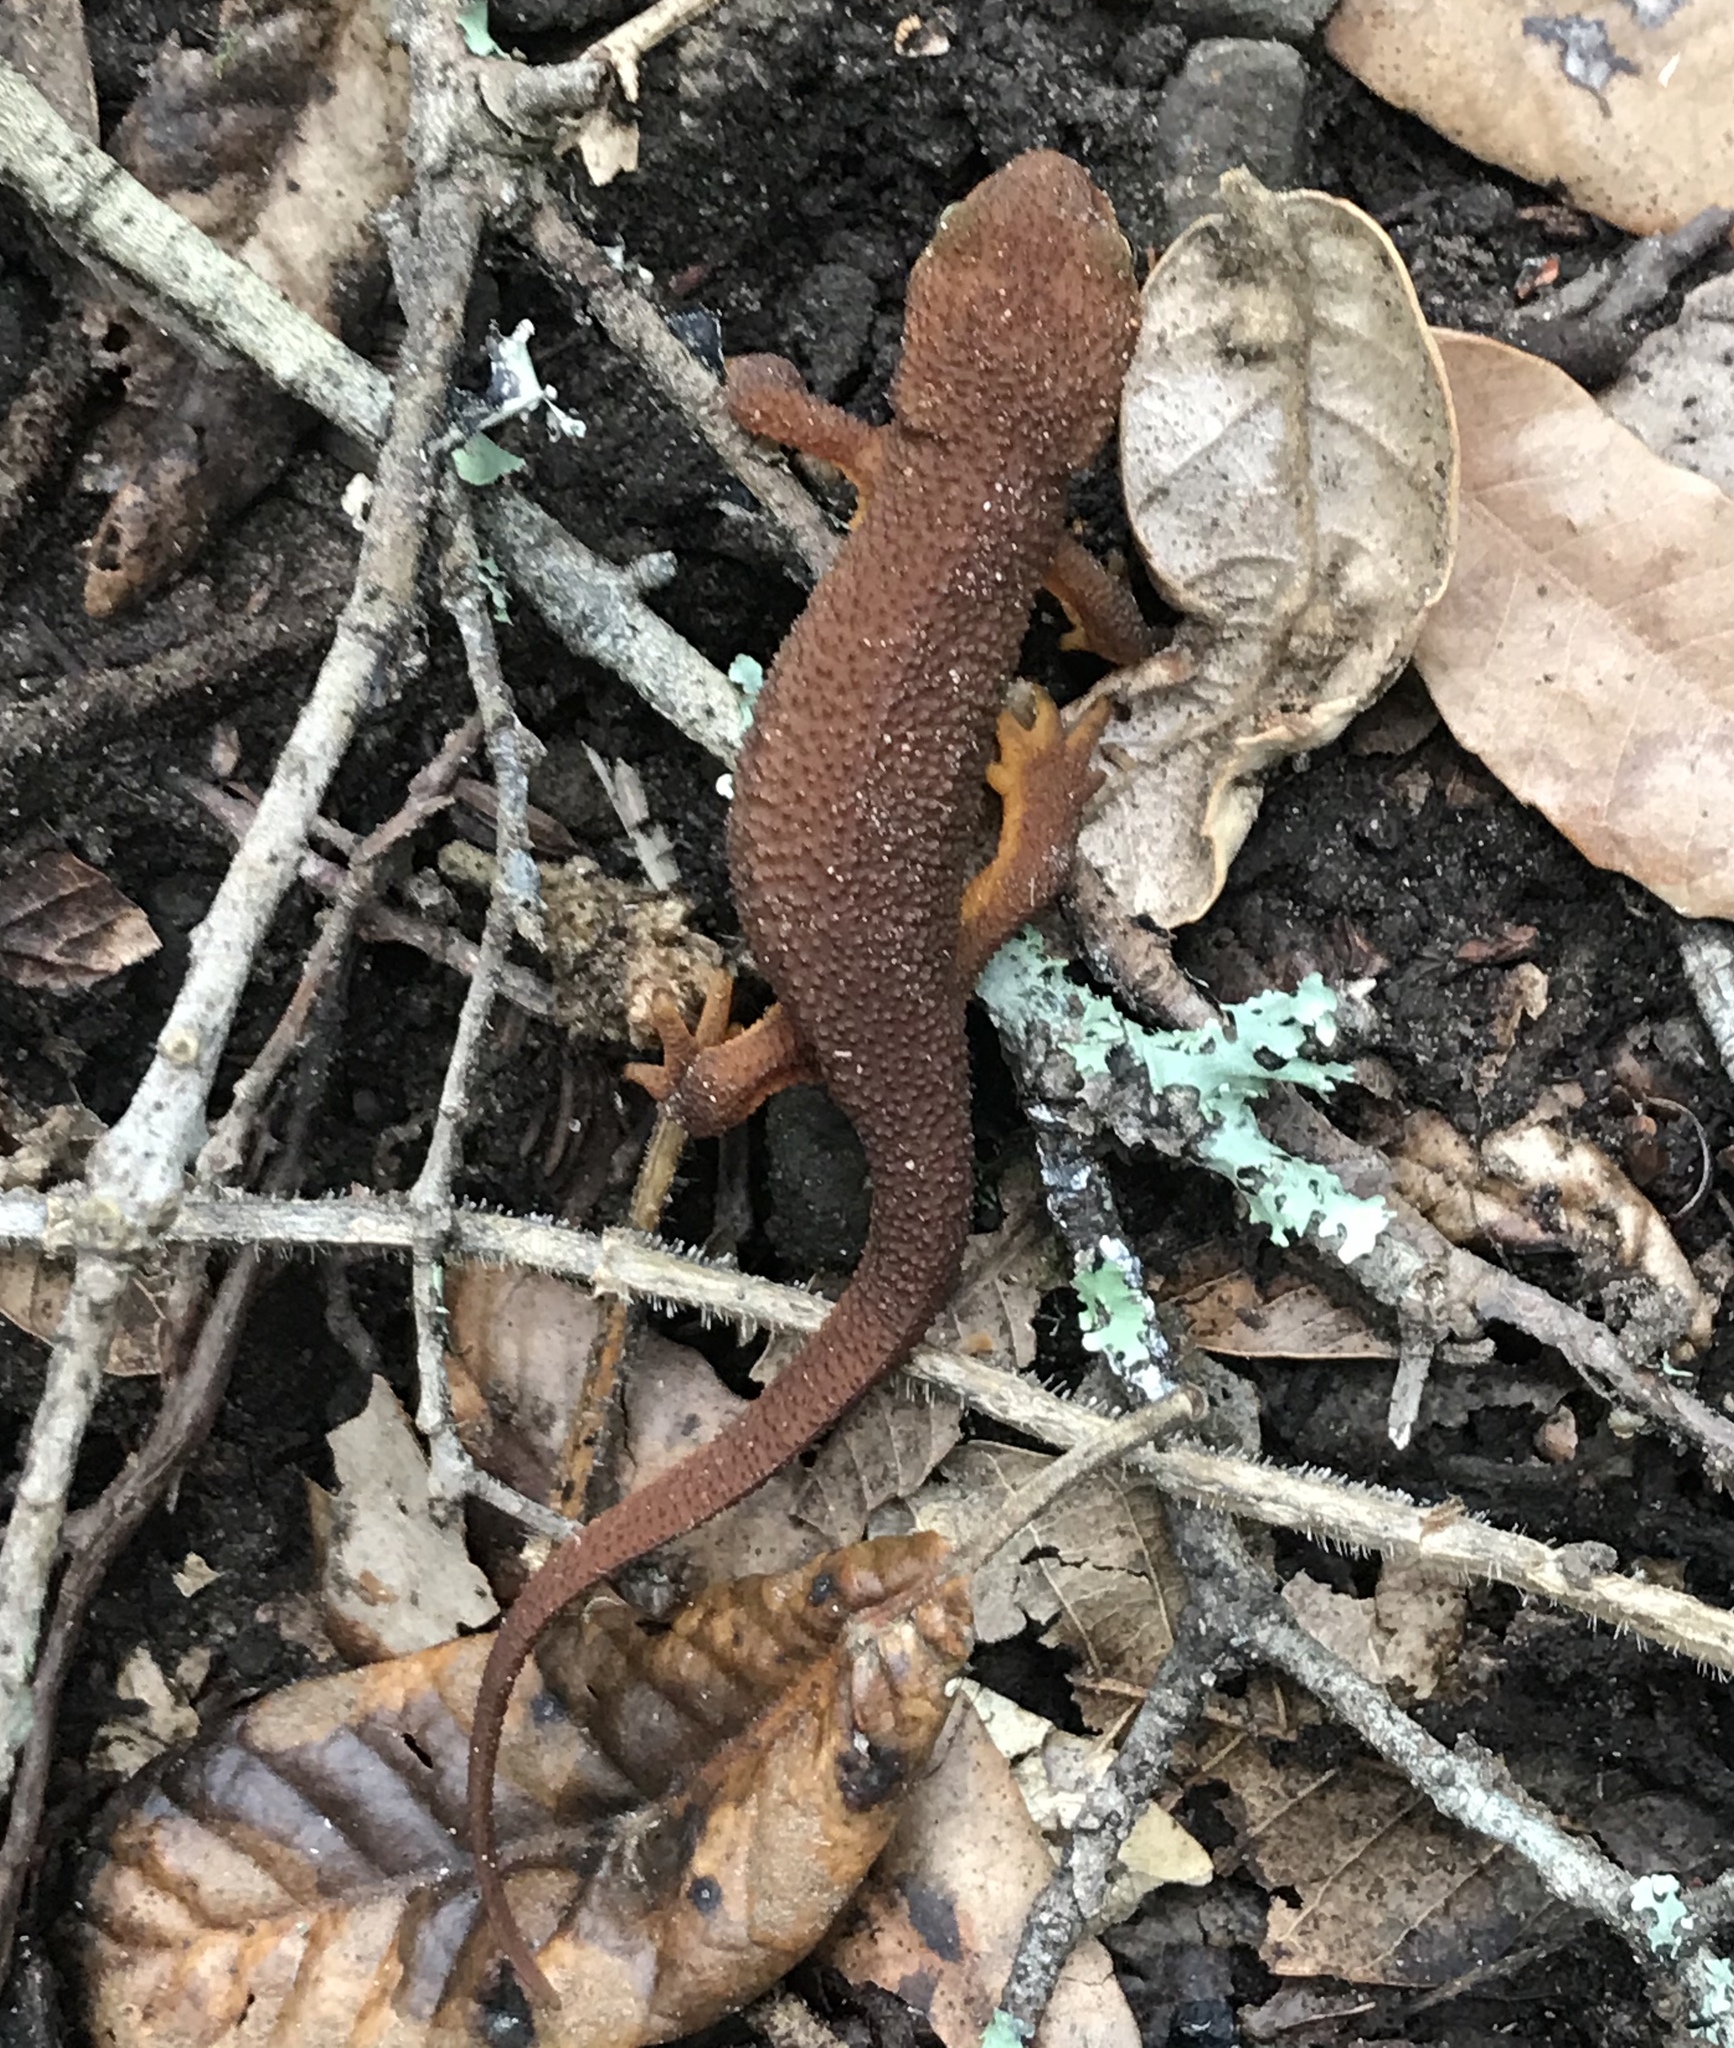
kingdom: Animalia
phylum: Chordata
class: Amphibia
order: Caudata
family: Salamandridae
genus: Taricha
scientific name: Taricha granulosa
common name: Roughskin newt
